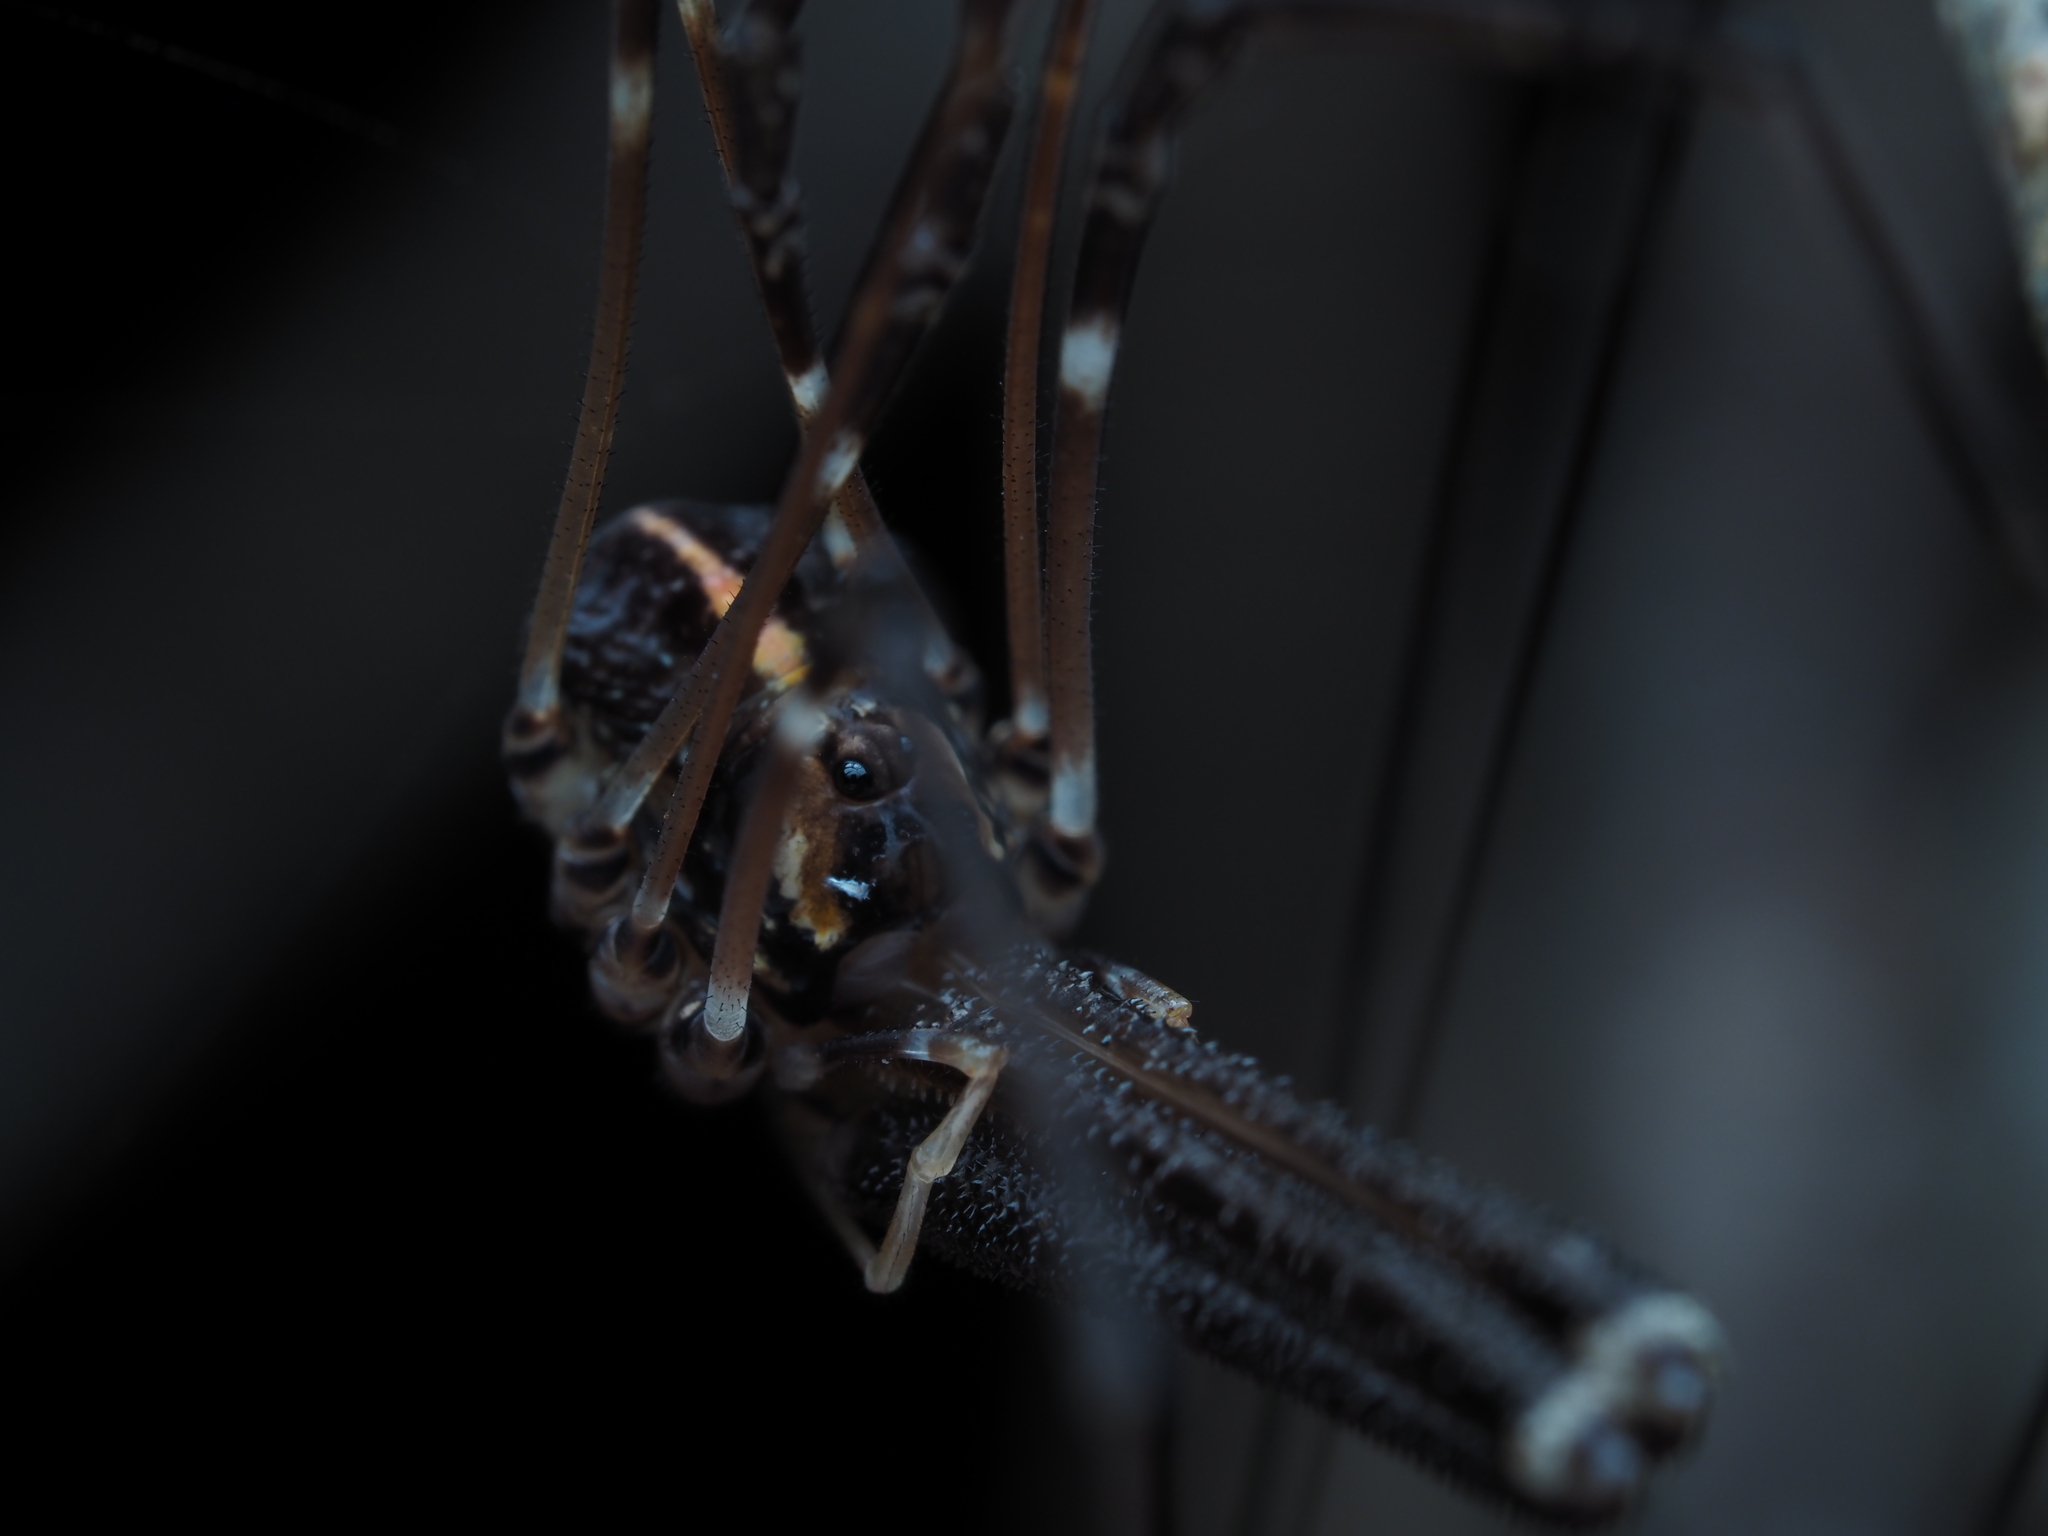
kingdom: Animalia
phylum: Arthropoda
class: Arachnida
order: Opiliones
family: Neopilionidae
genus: Forsteropsalis
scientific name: Forsteropsalis pureora
